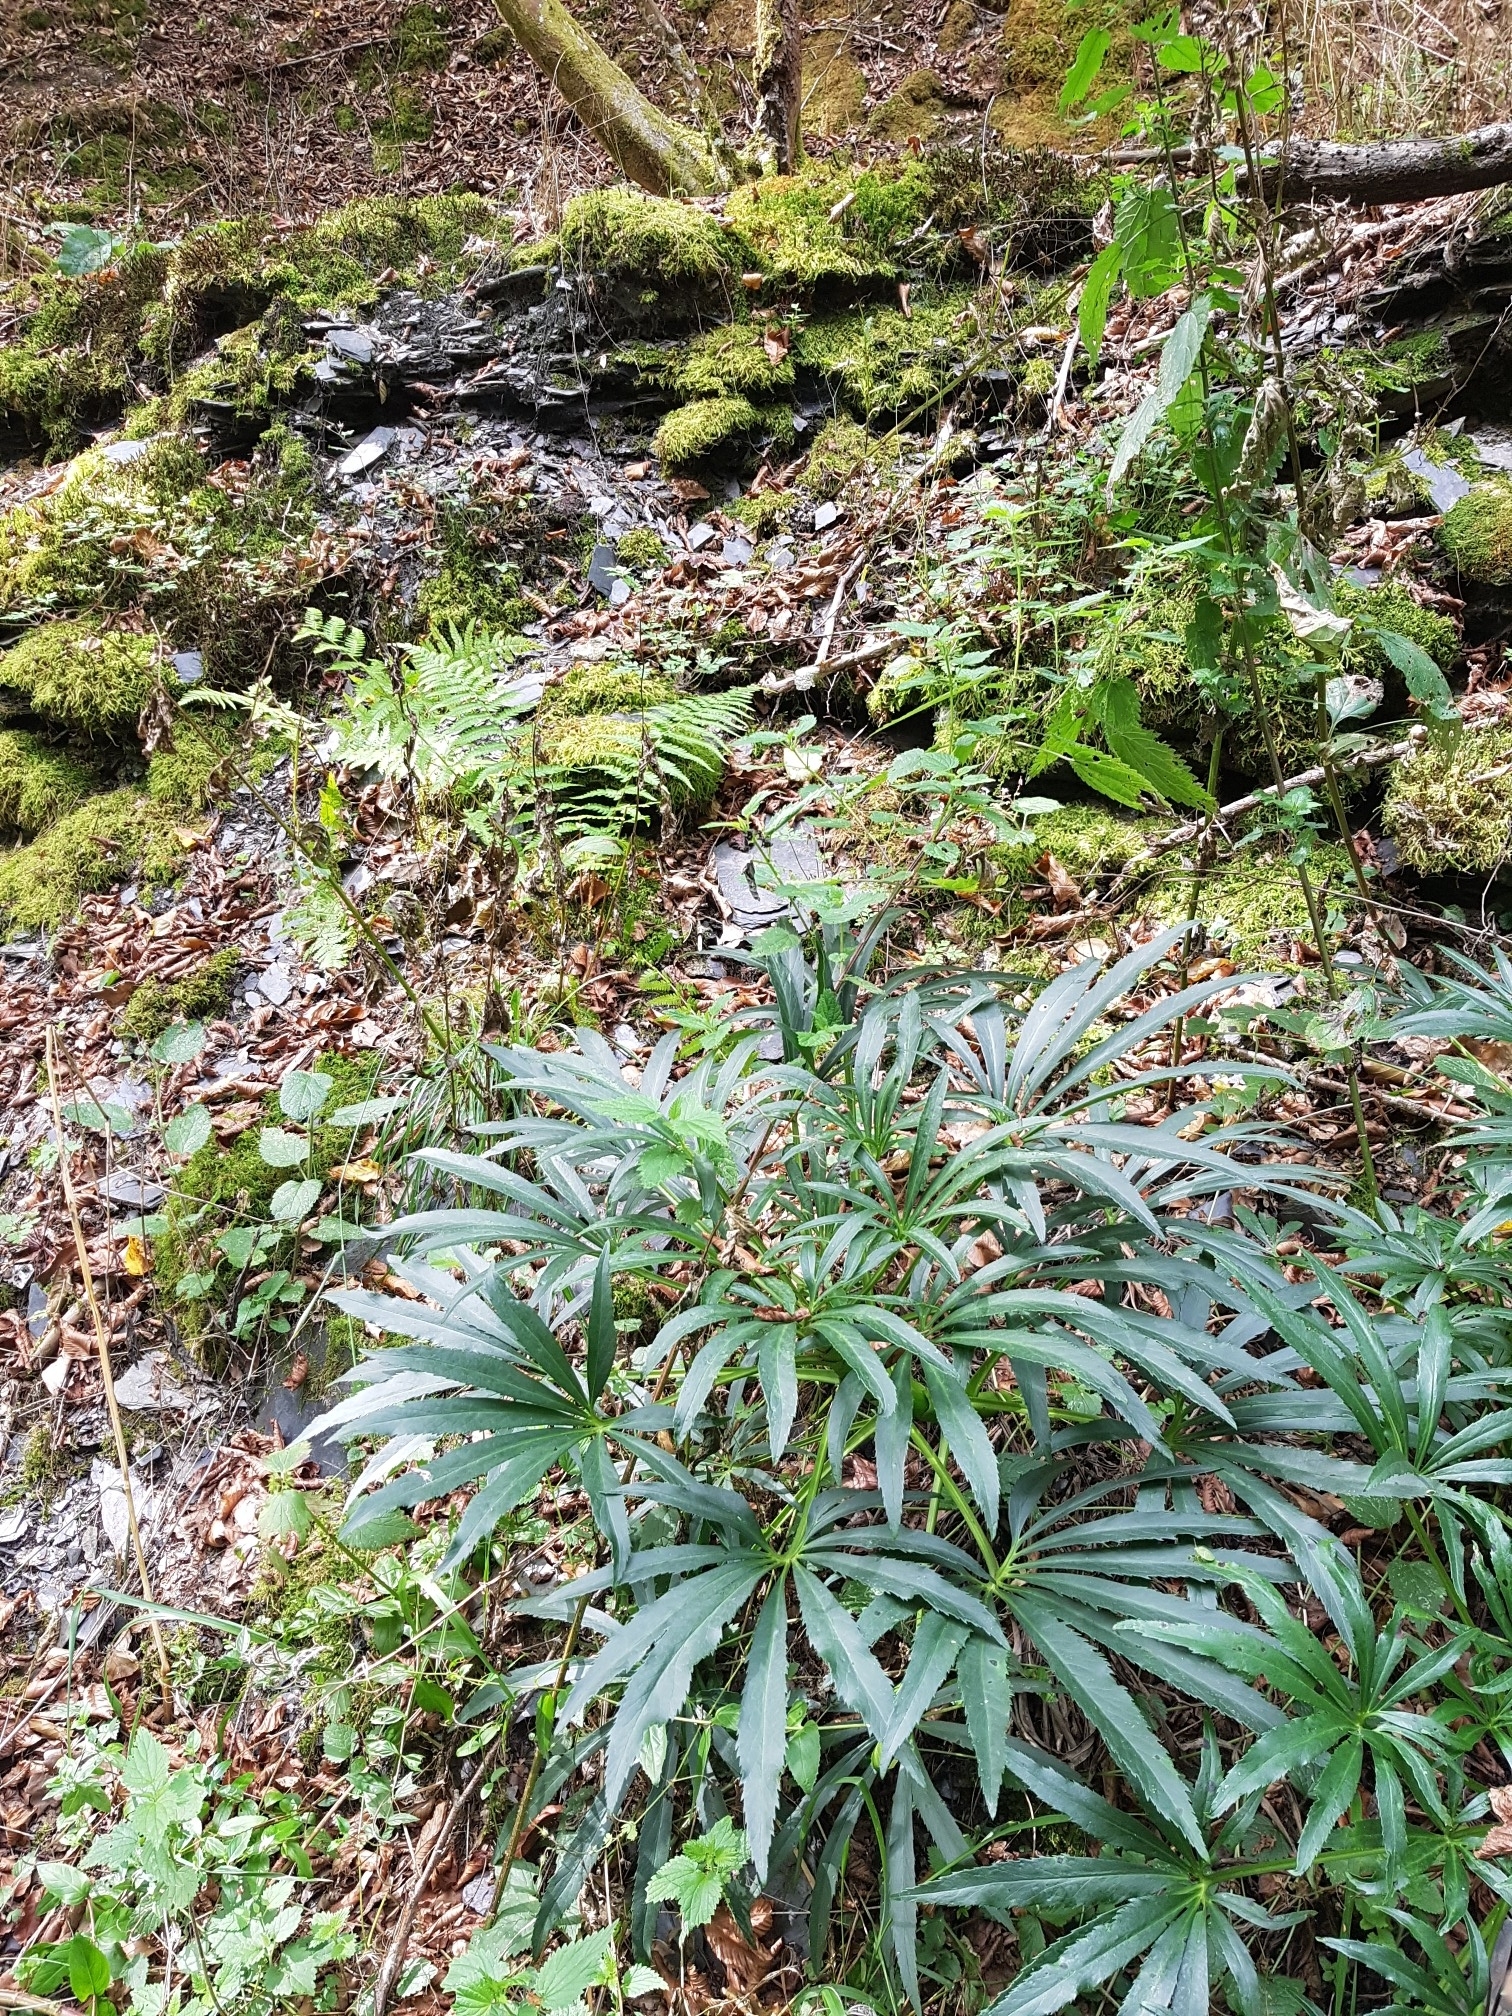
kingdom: Plantae
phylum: Tracheophyta
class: Magnoliopsida
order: Ranunculales
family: Ranunculaceae
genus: Helleborus
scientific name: Helleborus foetidus
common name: Stinking hellebore
